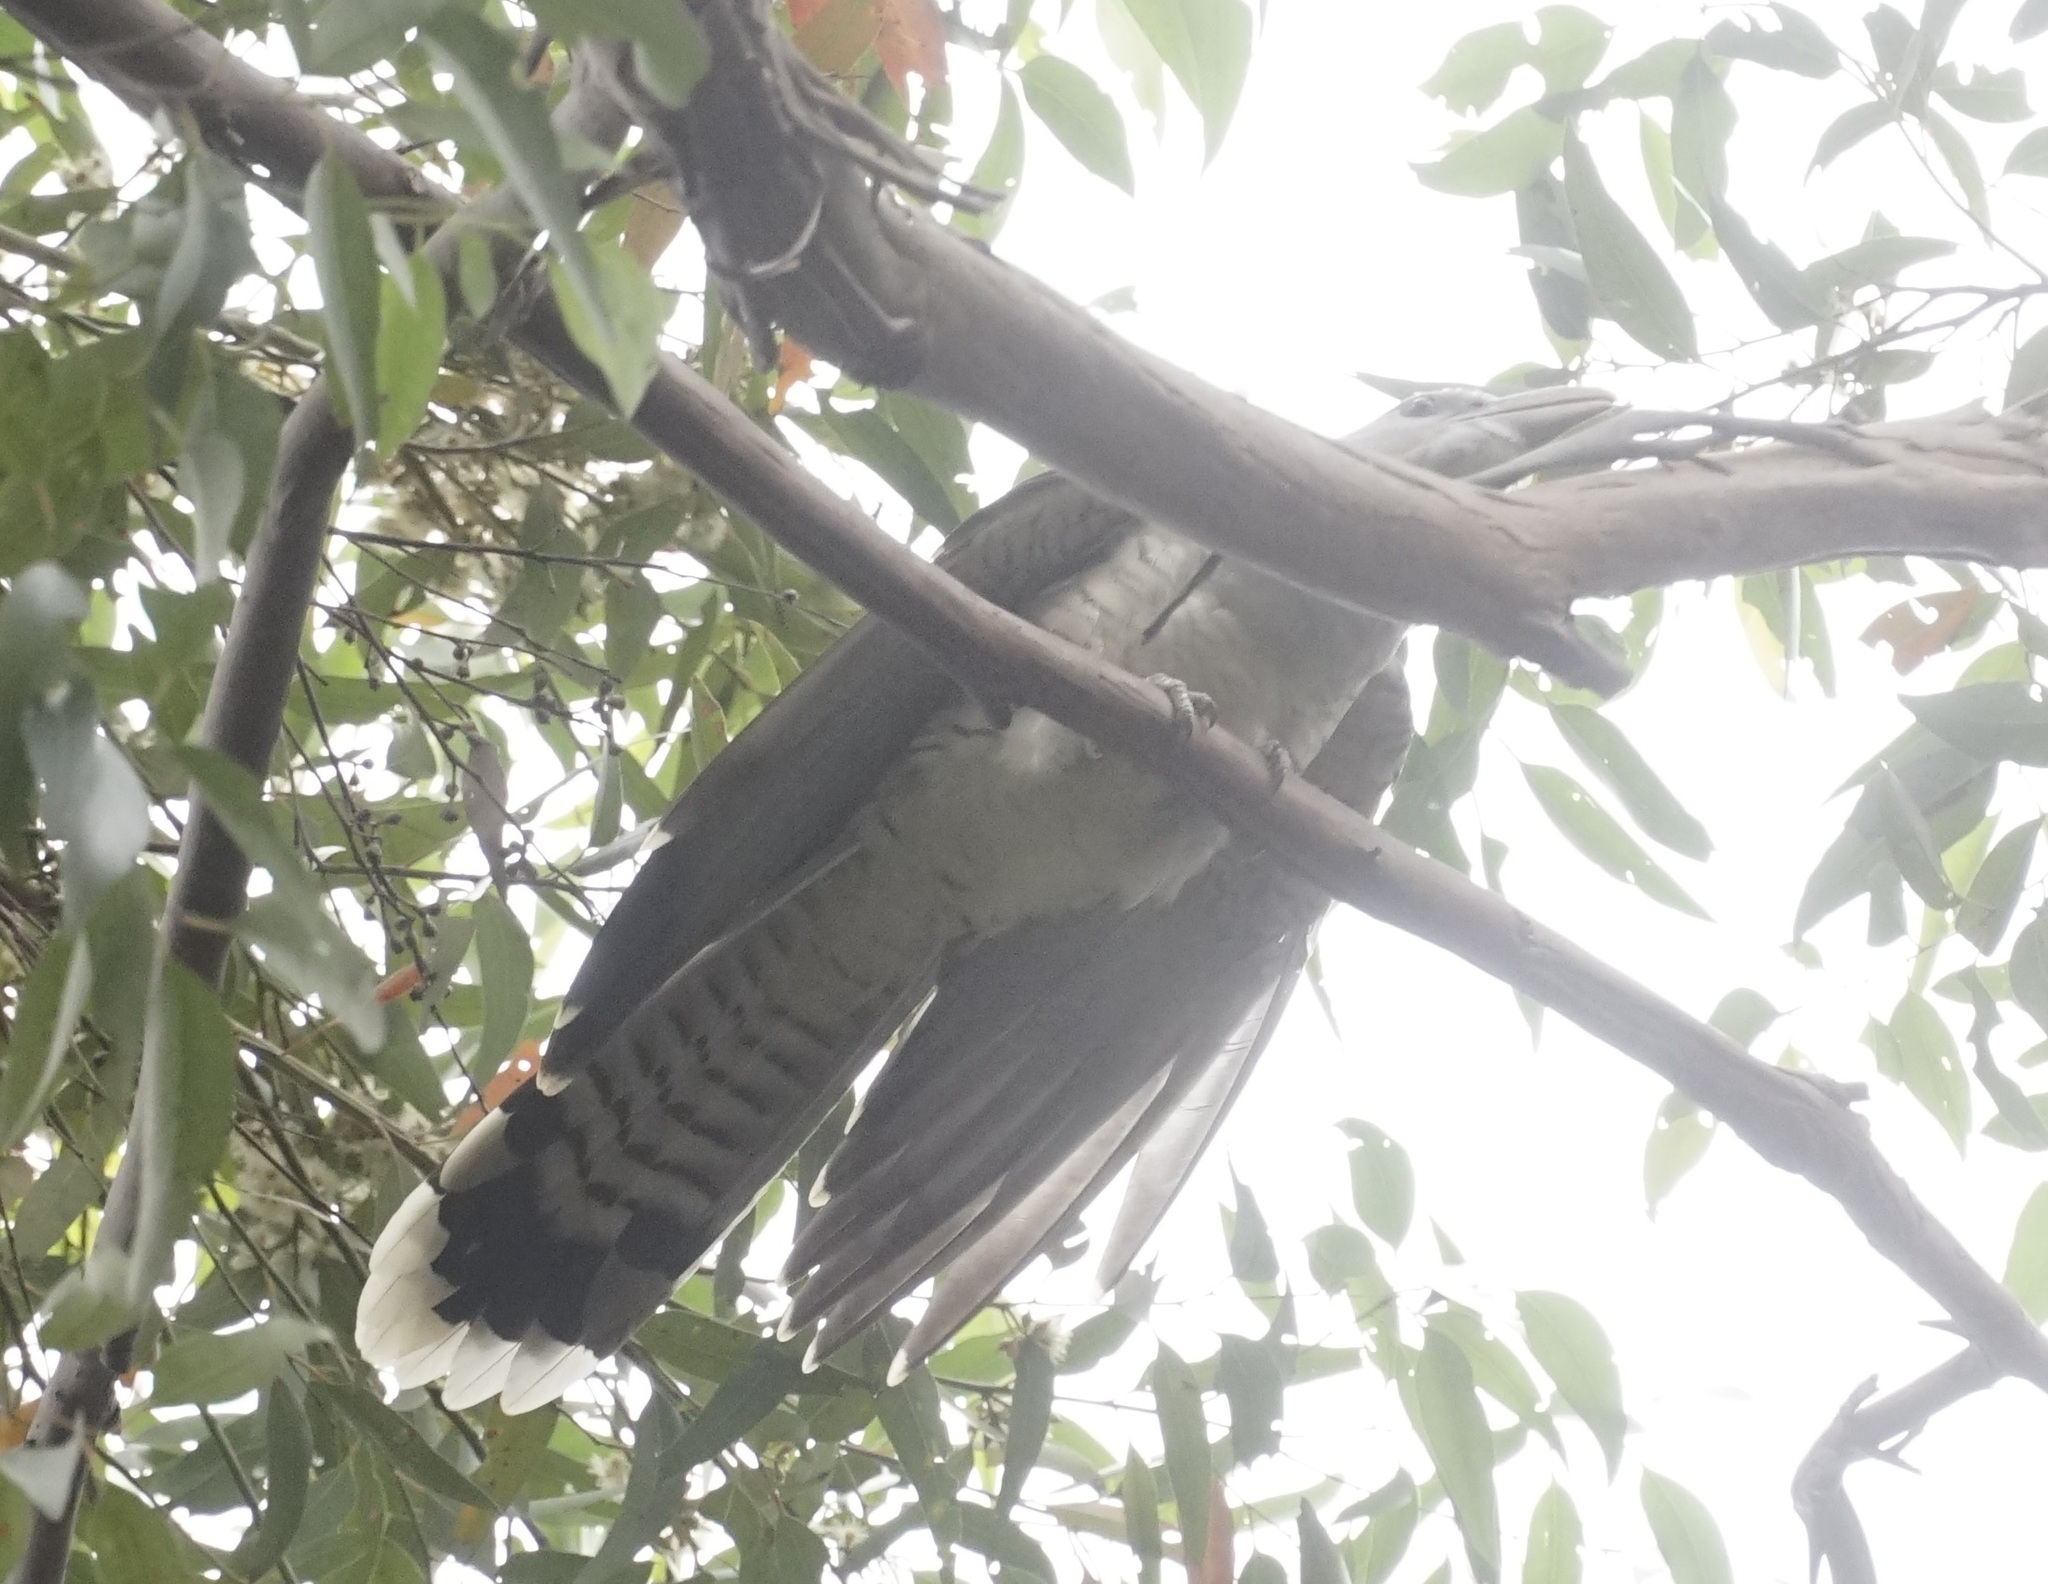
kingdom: Animalia
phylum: Chordata
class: Aves
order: Cuculiformes
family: Cuculidae
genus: Scythrops
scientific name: Scythrops novaehollandiae
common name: Channel-billed cuckoo
